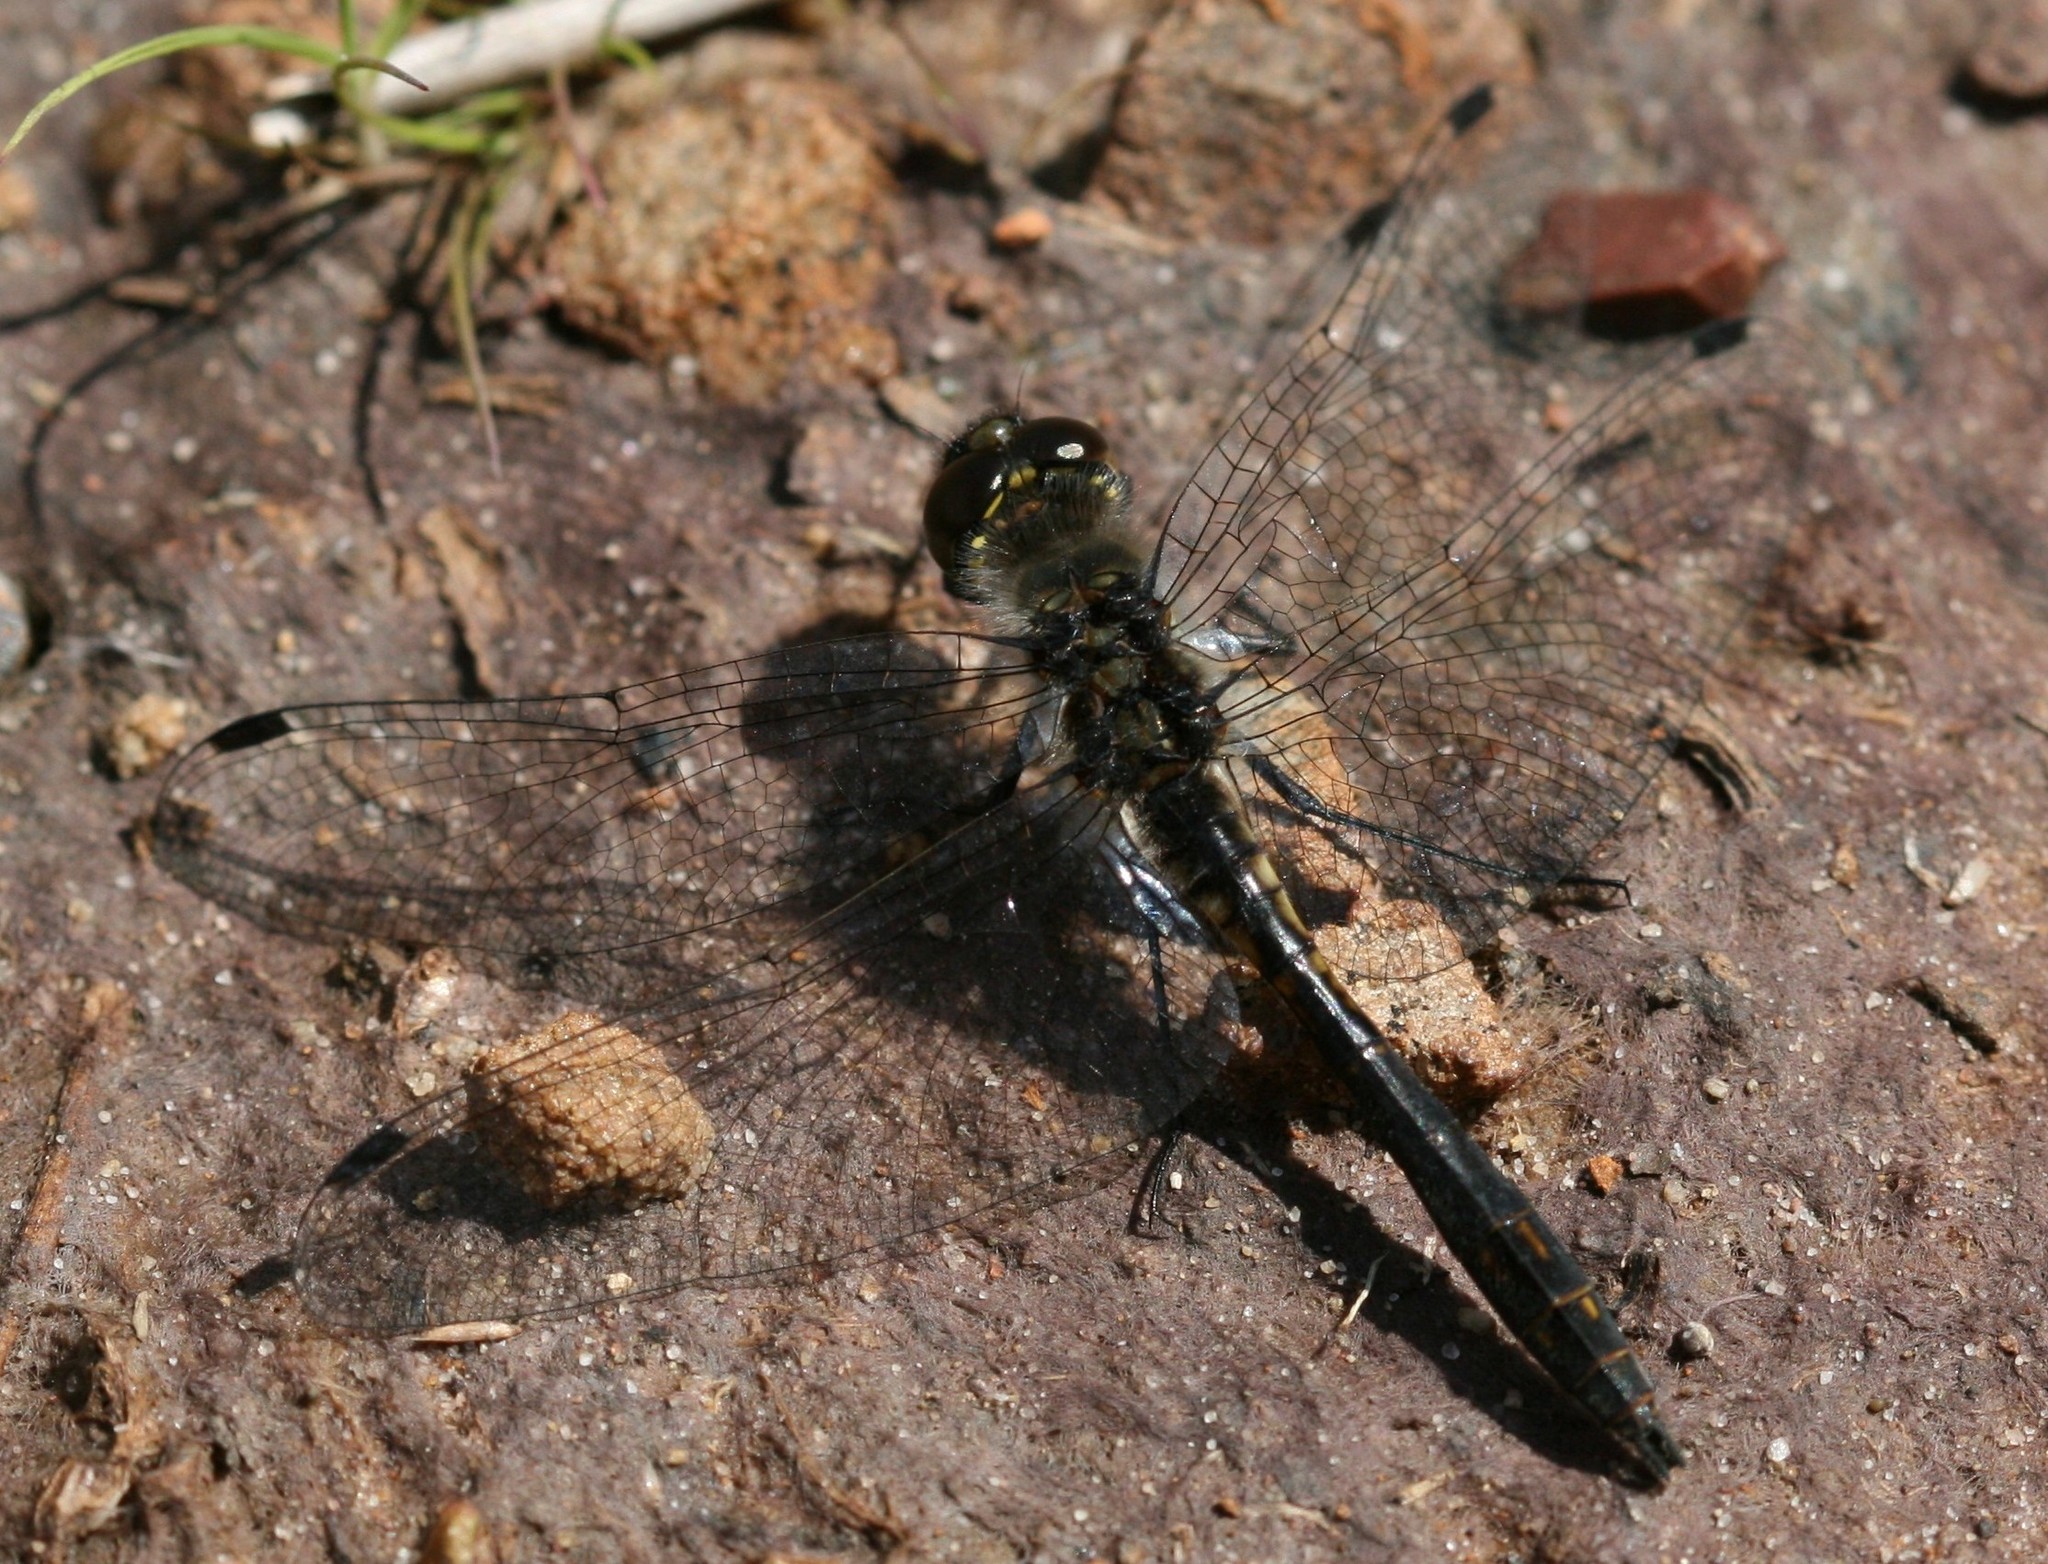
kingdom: Animalia
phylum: Arthropoda
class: Insecta
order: Odonata
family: Libellulidae
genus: Sympetrum
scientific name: Sympetrum danae
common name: Black darter
